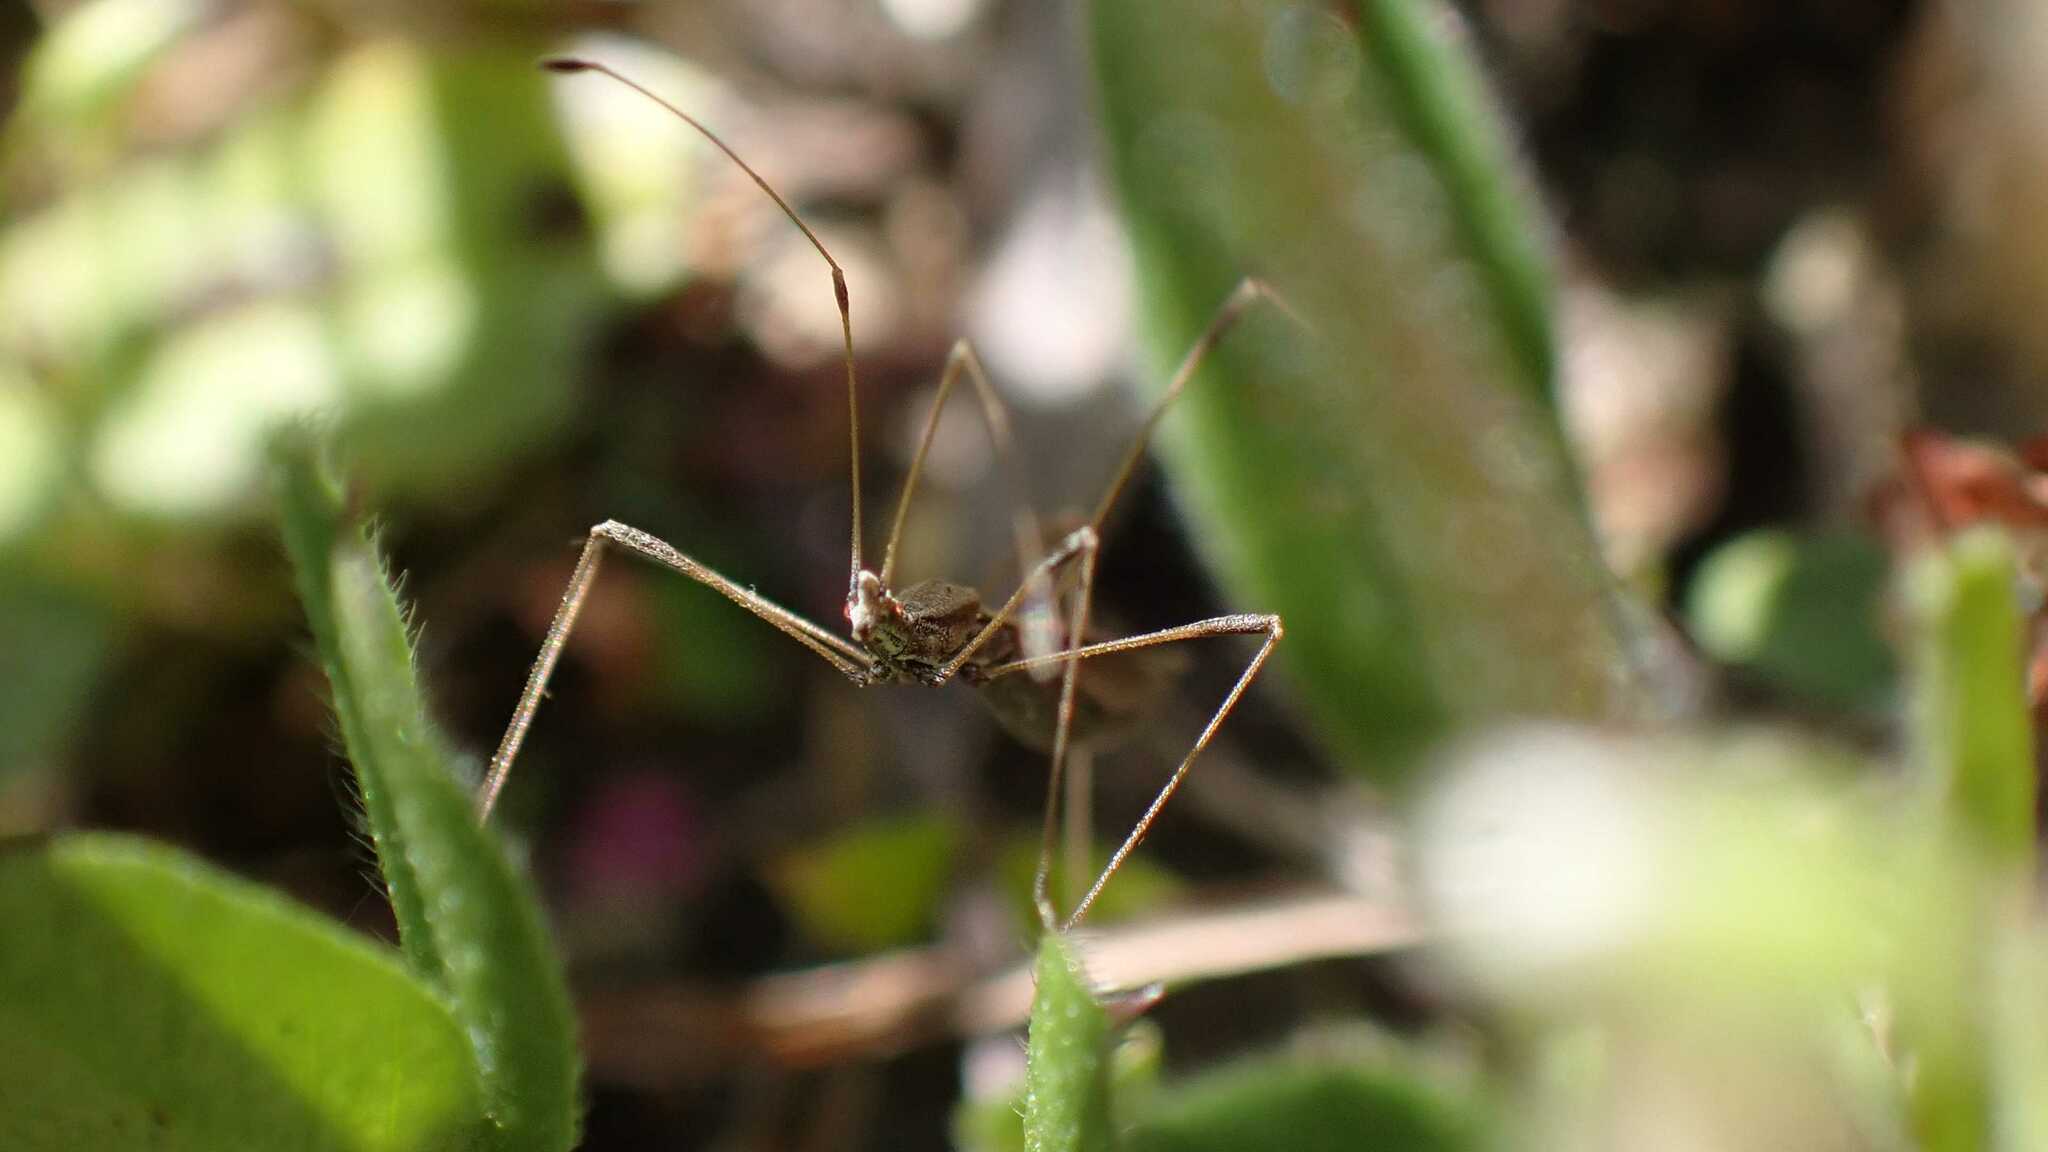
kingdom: Animalia
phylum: Arthropoda
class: Insecta
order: Hemiptera
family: Berytidae
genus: Neides
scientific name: Neides tipularius
